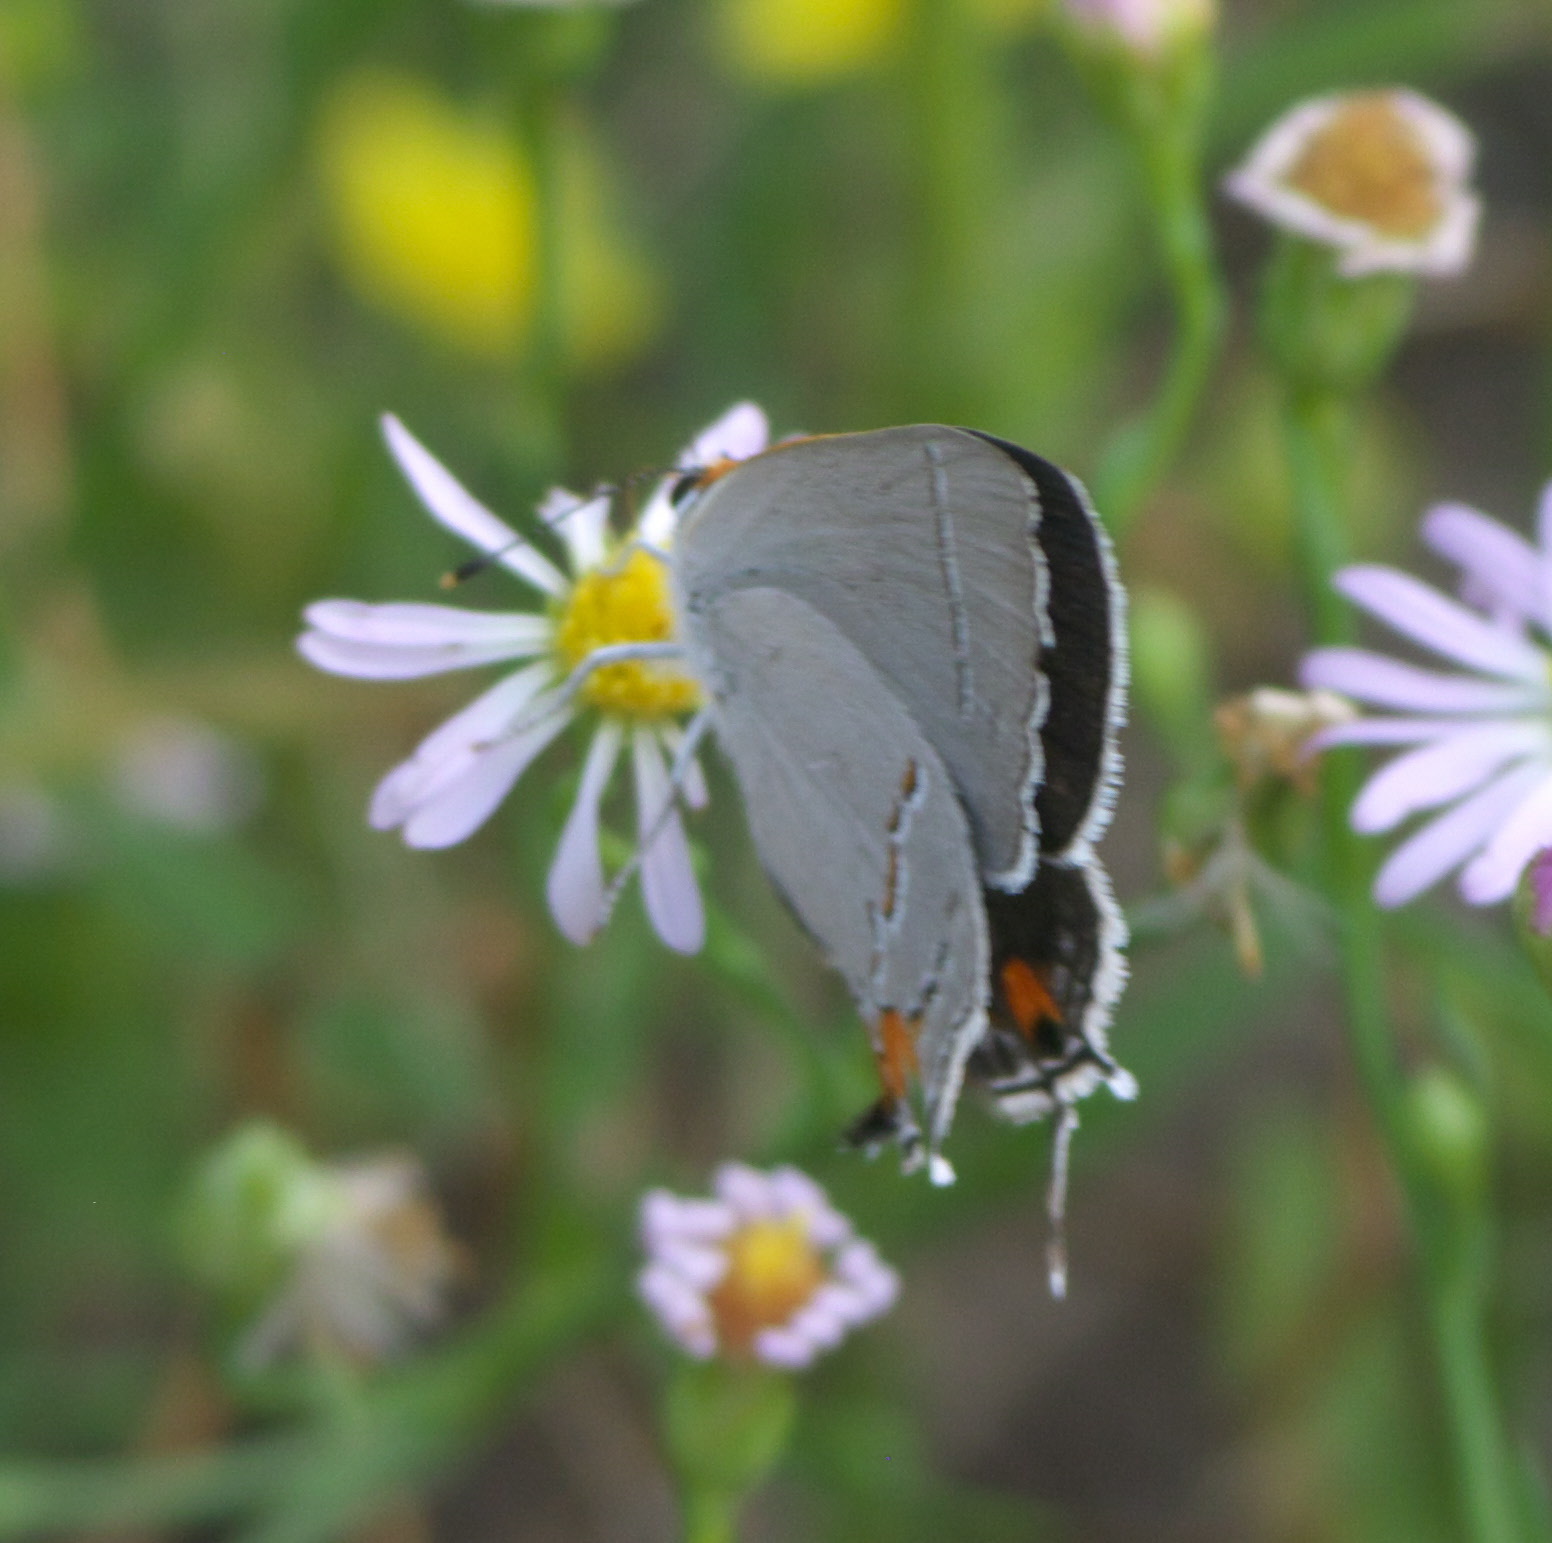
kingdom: Animalia
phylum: Arthropoda
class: Insecta
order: Lepidoptera
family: Lycaenidae
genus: Strymon
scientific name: Strymon melinus
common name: Gray hairstreak
